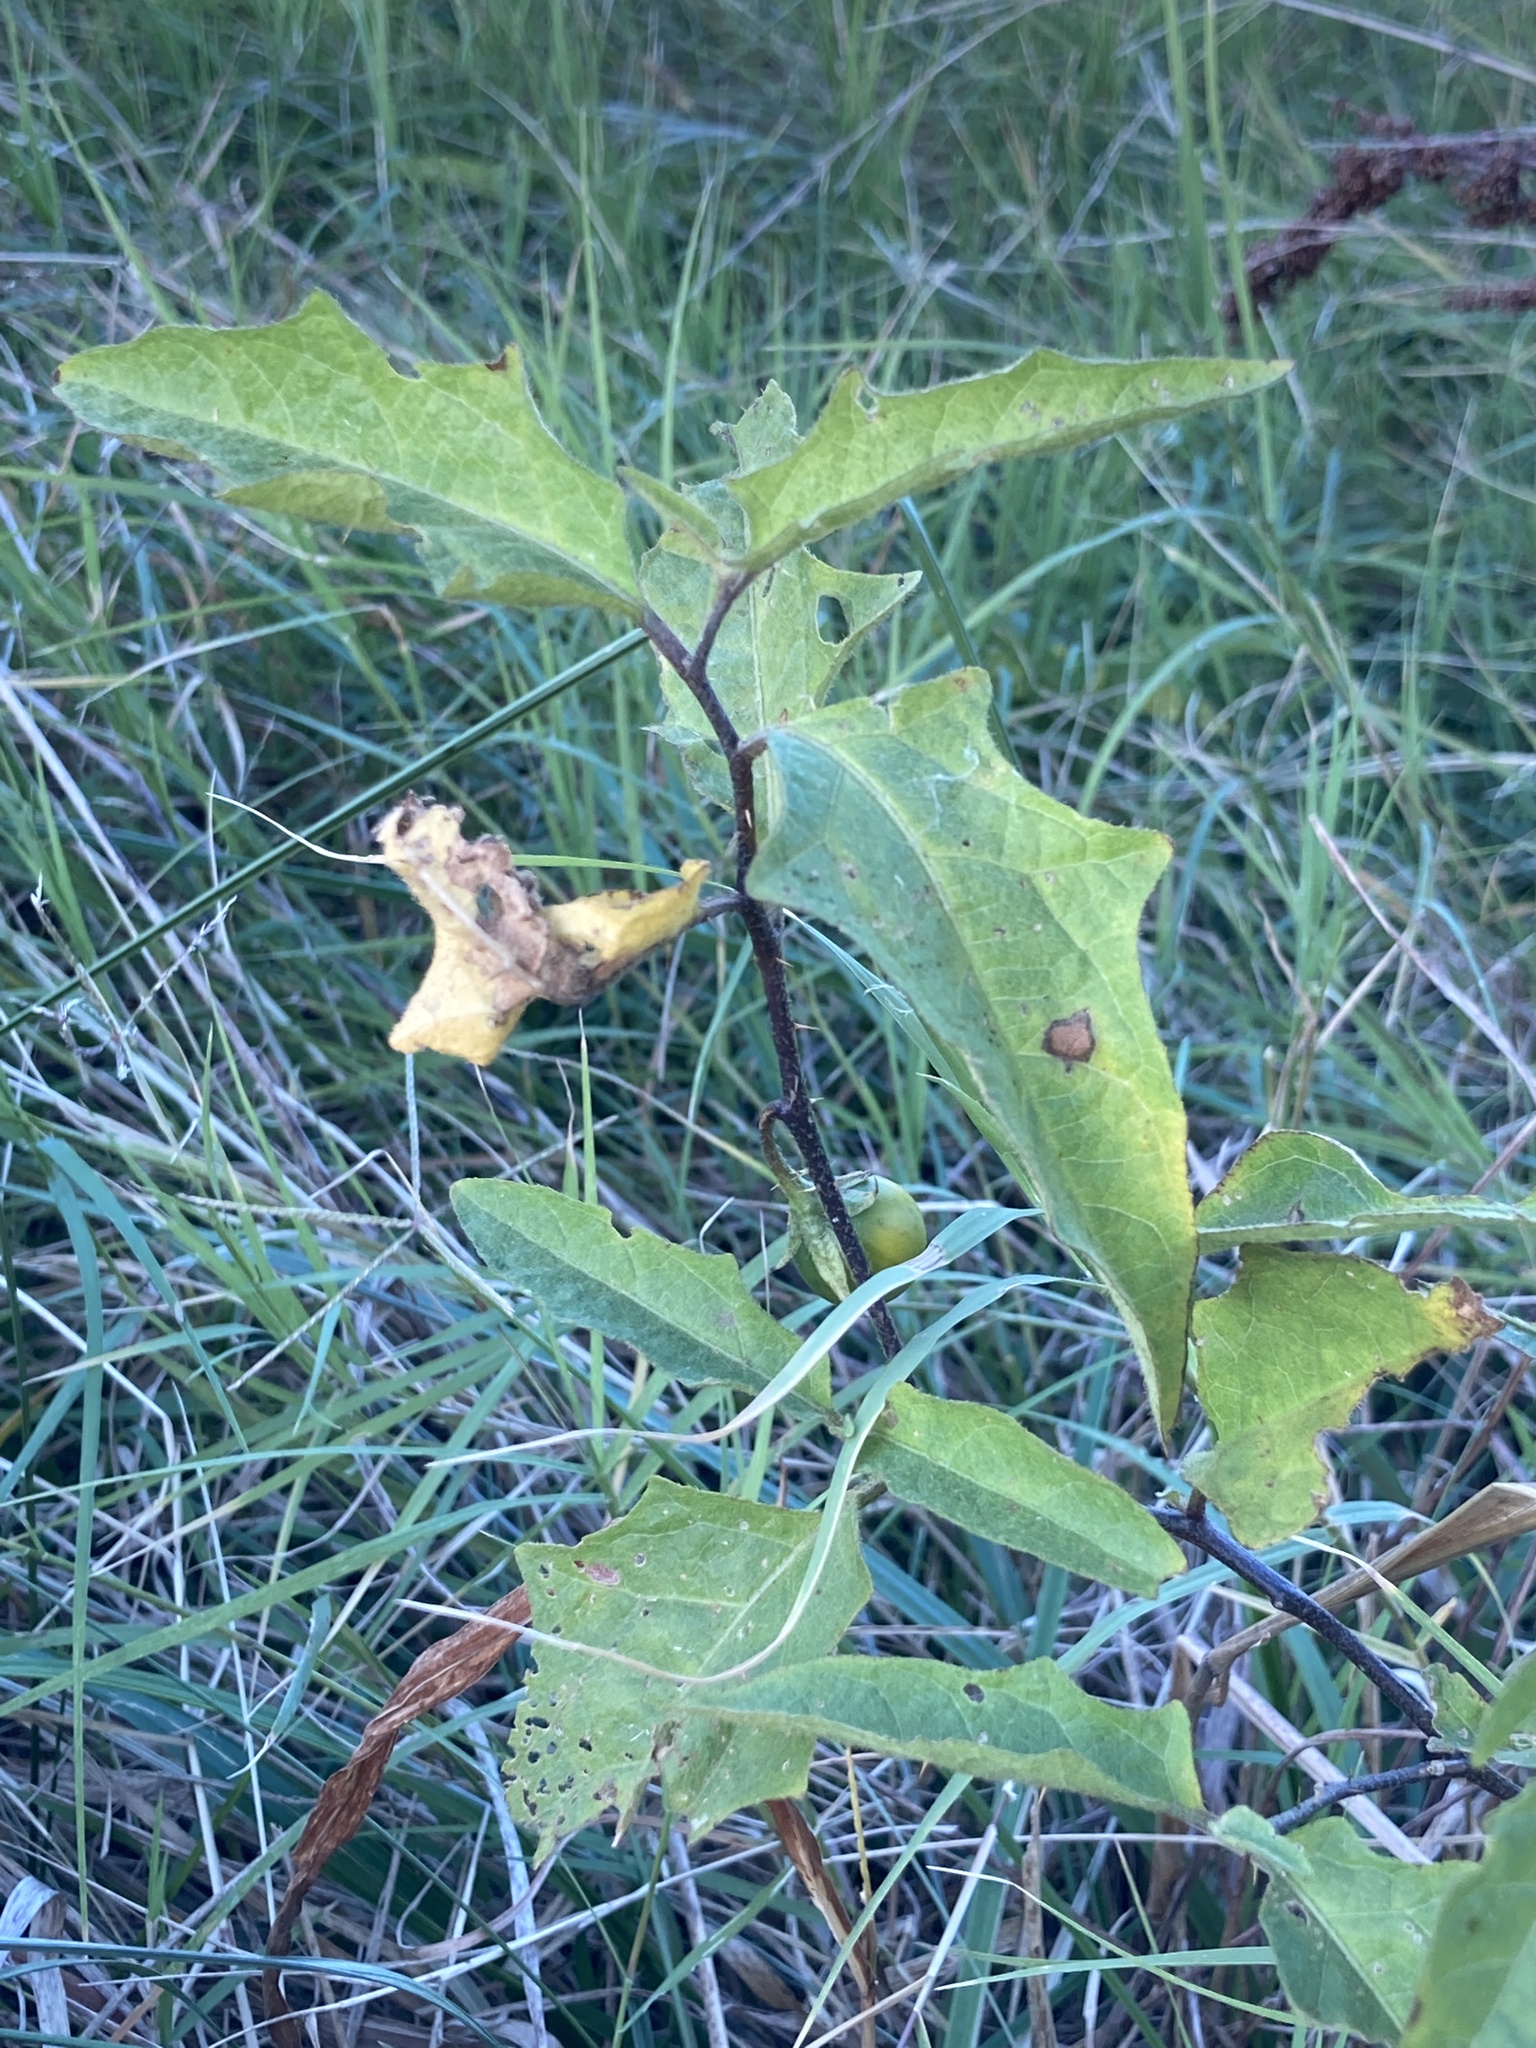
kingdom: Plantae
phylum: Tracheophyta
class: Magnoliopsida
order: Solanales
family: Solanaceae
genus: Solanum
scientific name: Solanum carolinense
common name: Horse-nettle
